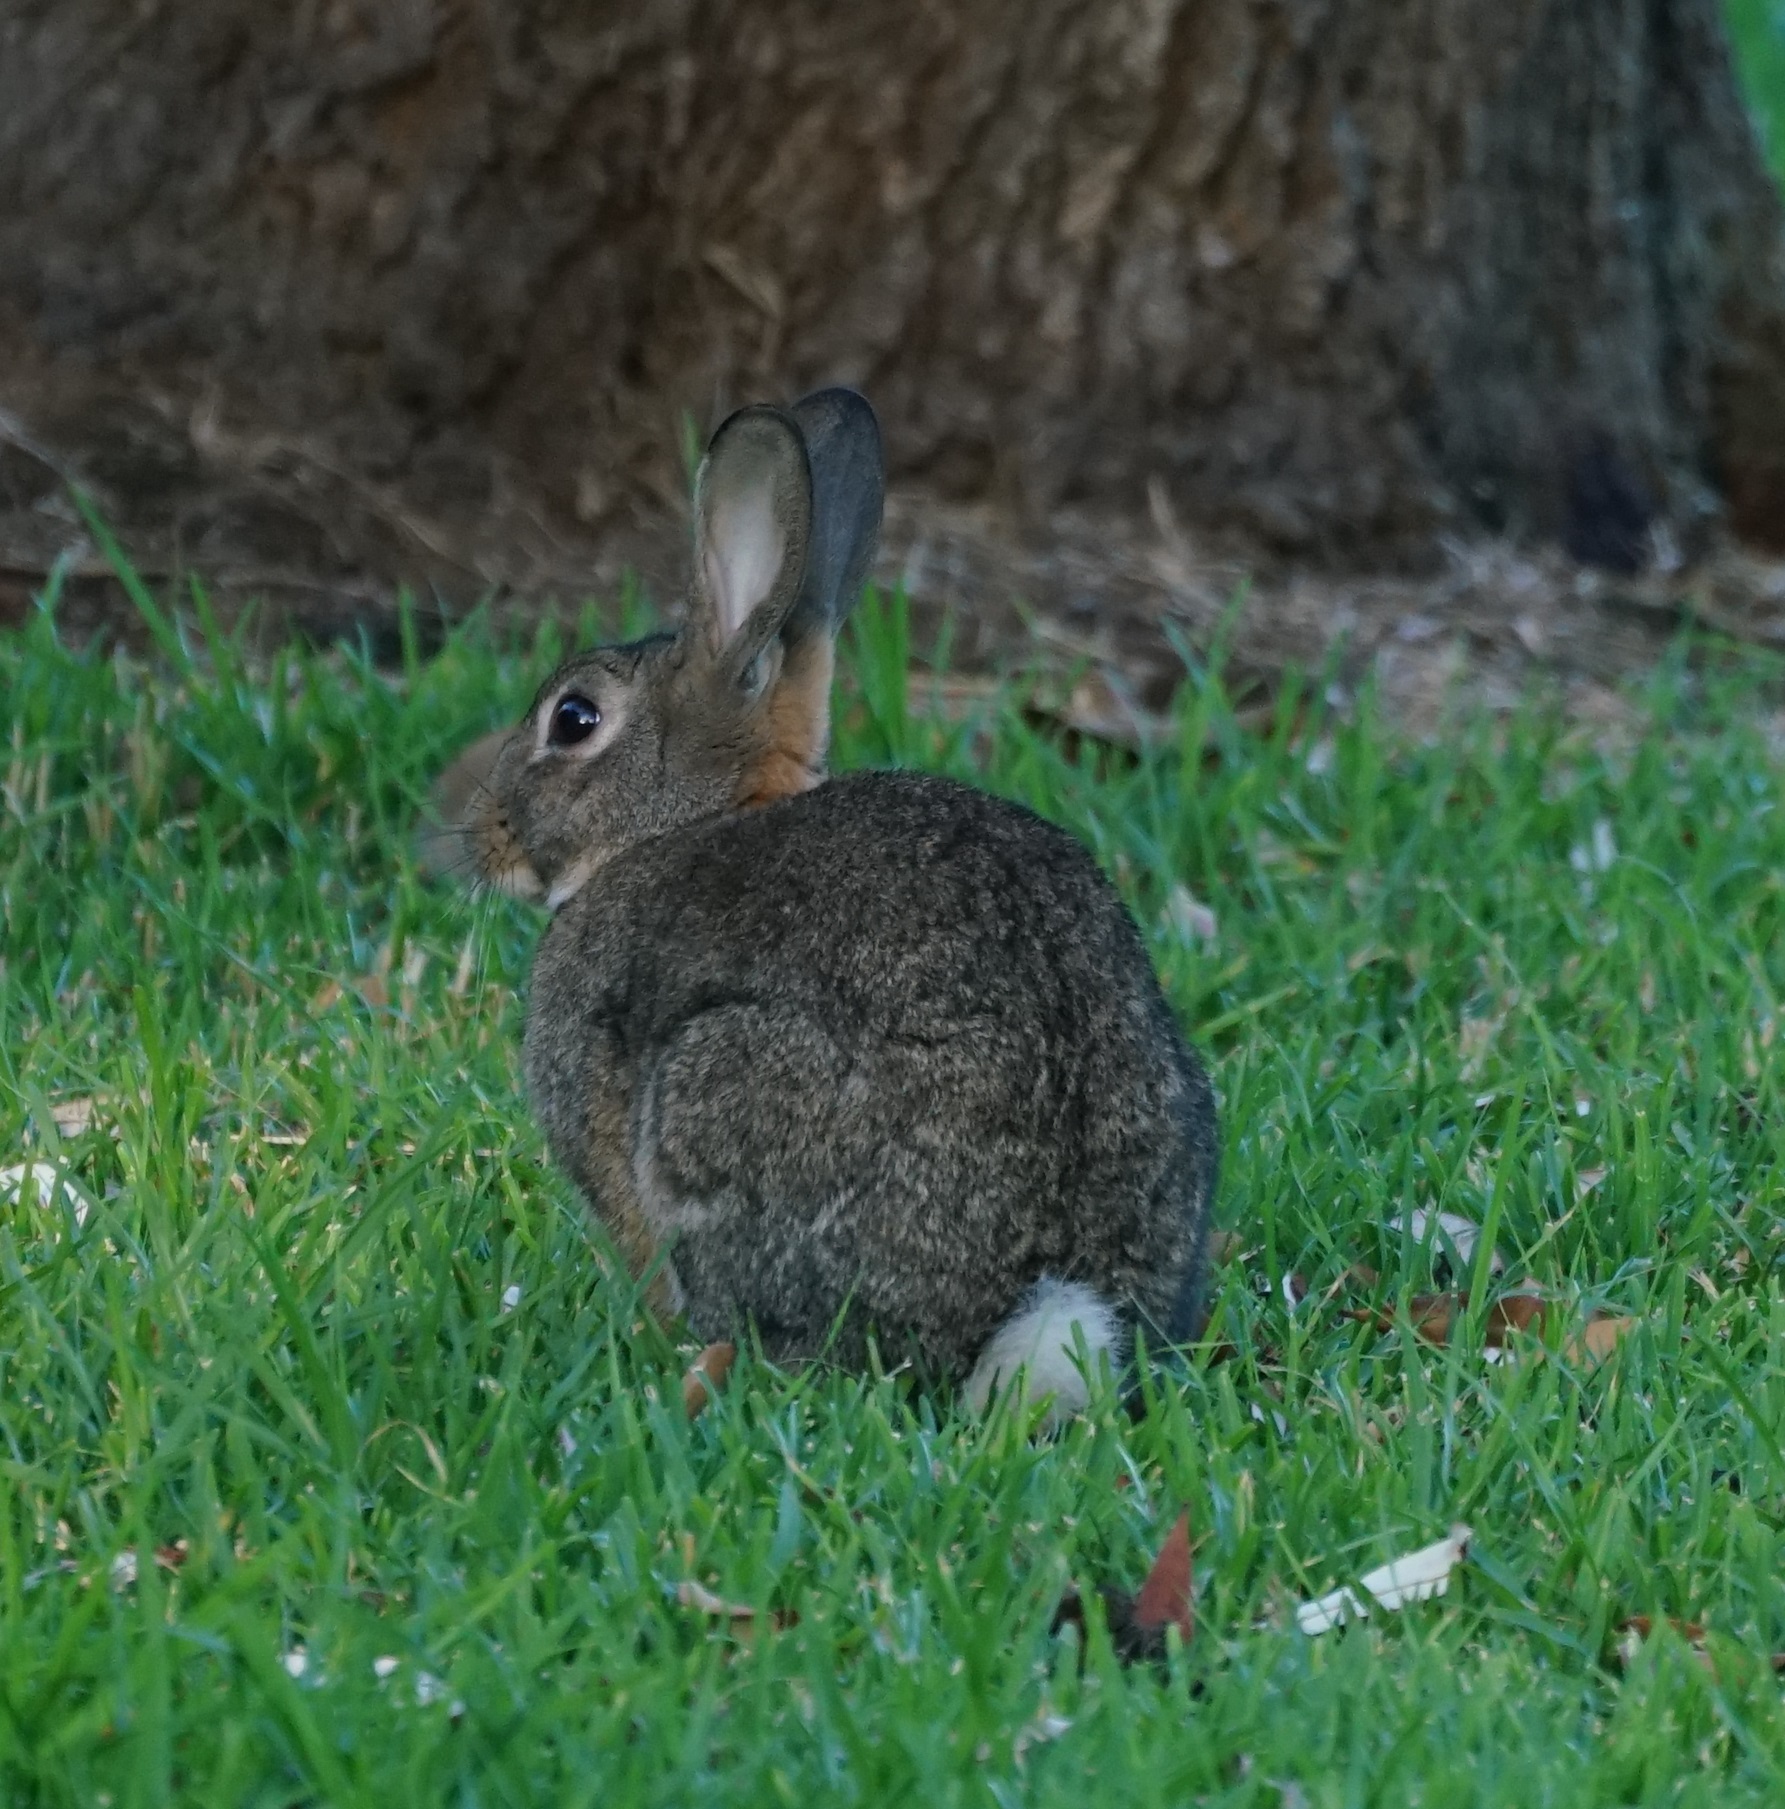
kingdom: Animalia
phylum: Chordata
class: Mammalia
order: Lagomorpha
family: Leporidae
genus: Oryctolagus
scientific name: Oryctolagus cuniculus
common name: European rabbit
